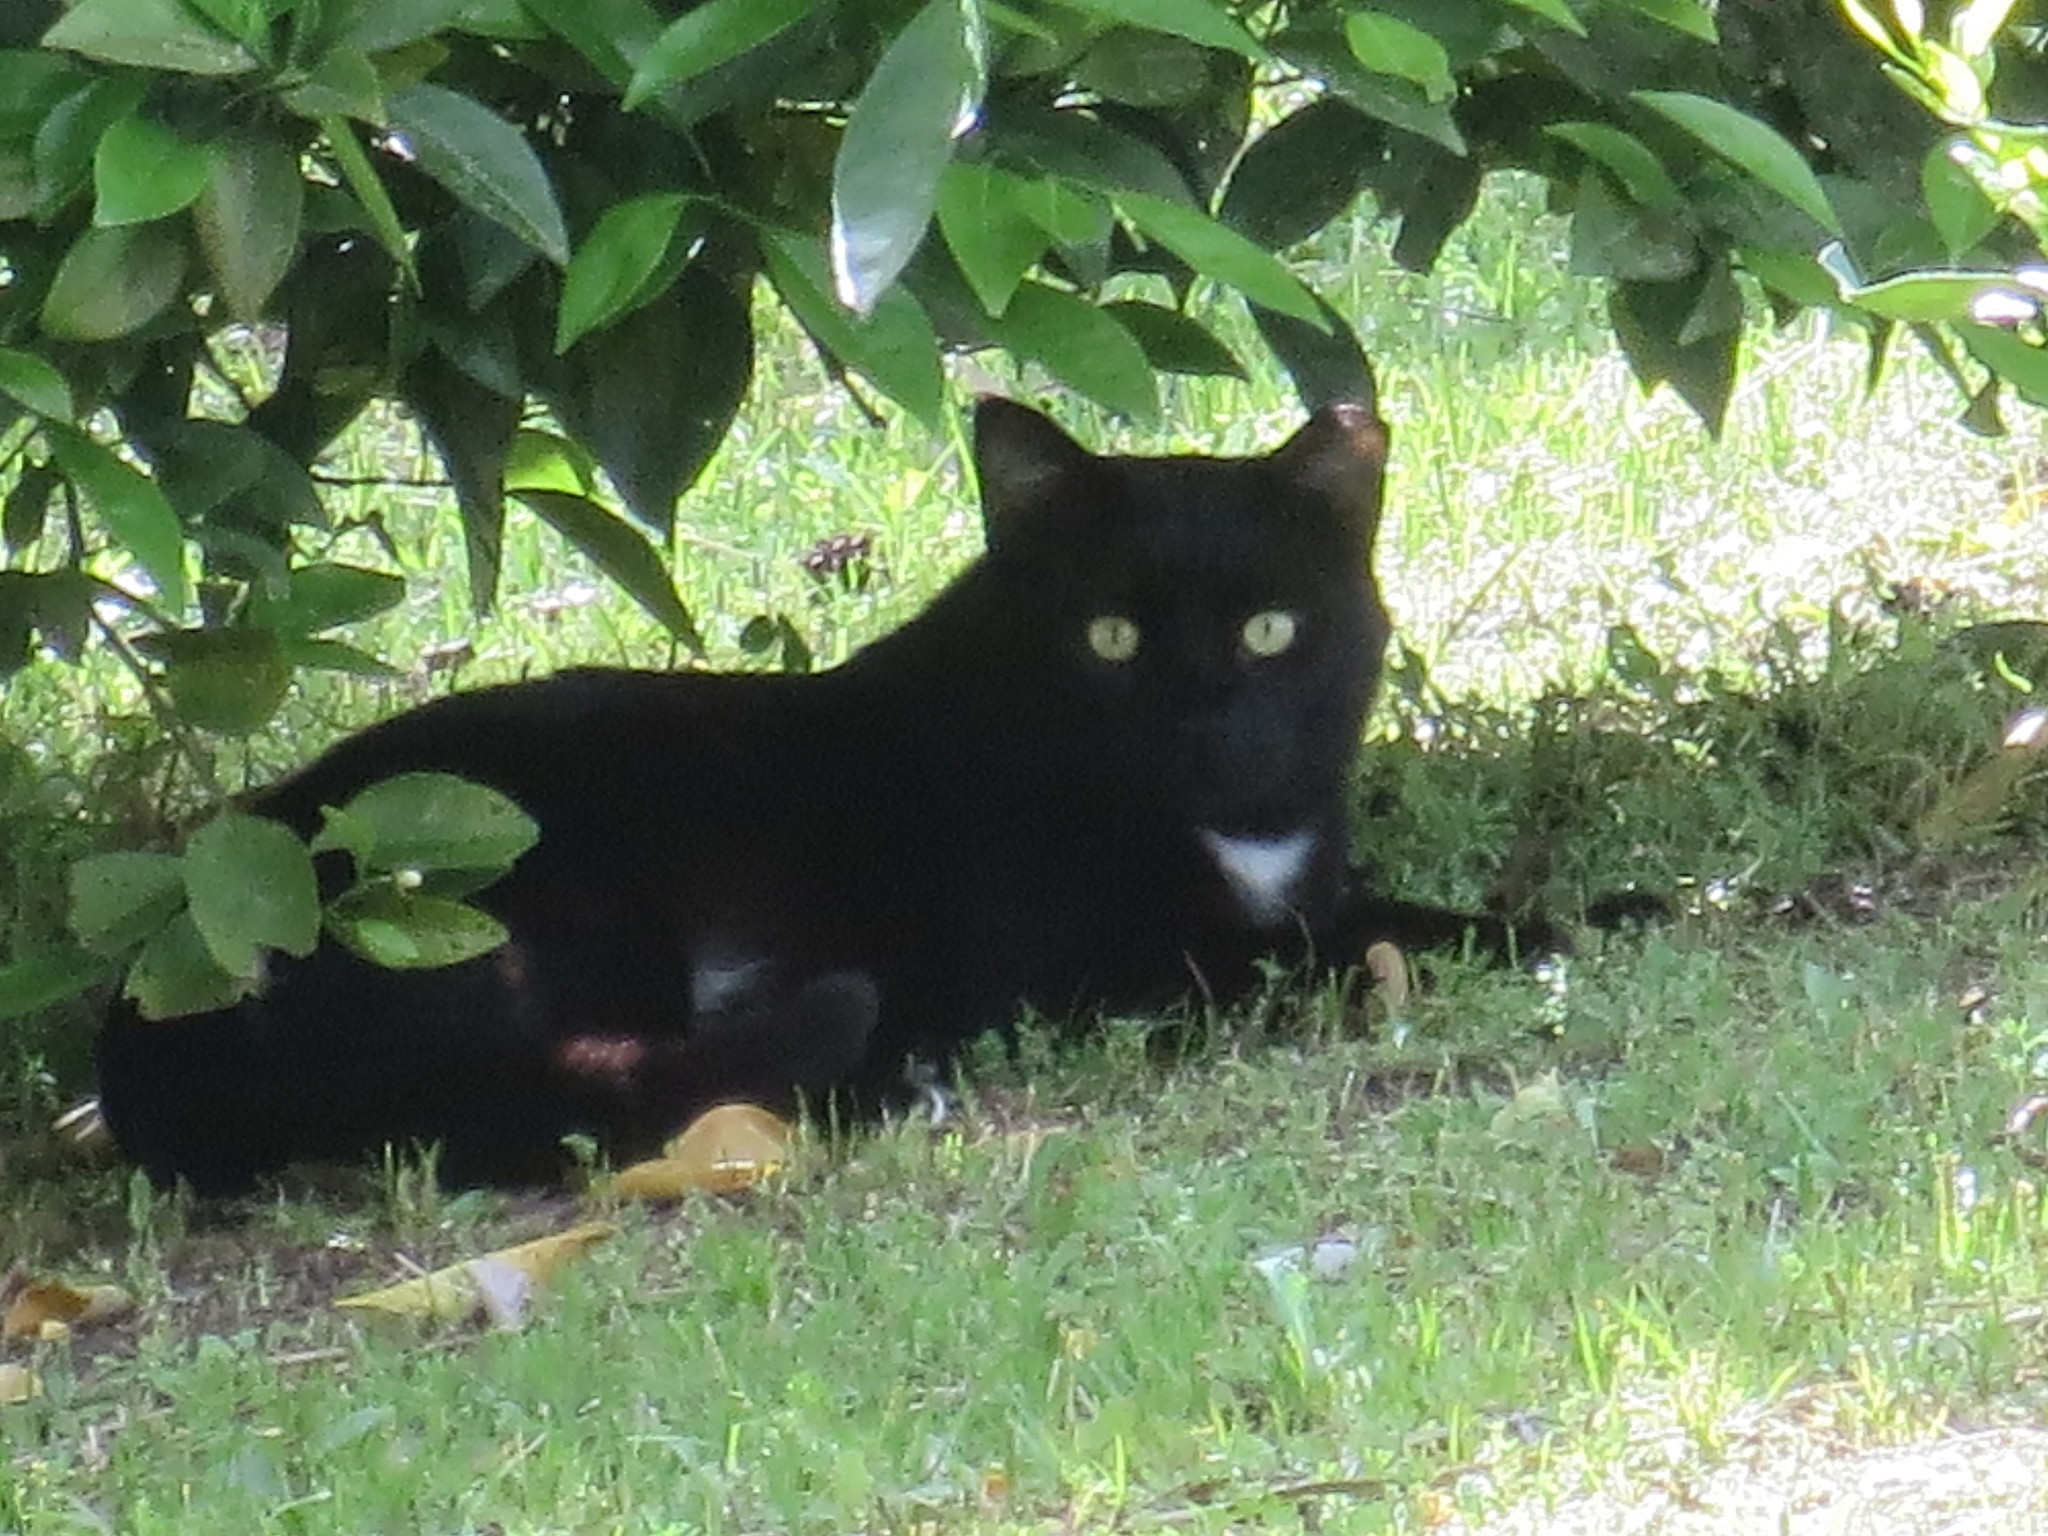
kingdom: Animalia
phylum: Chordata
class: Mammalia
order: Carnivora
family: Felidae
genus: Felis
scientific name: Felis catus
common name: Domestic cat
